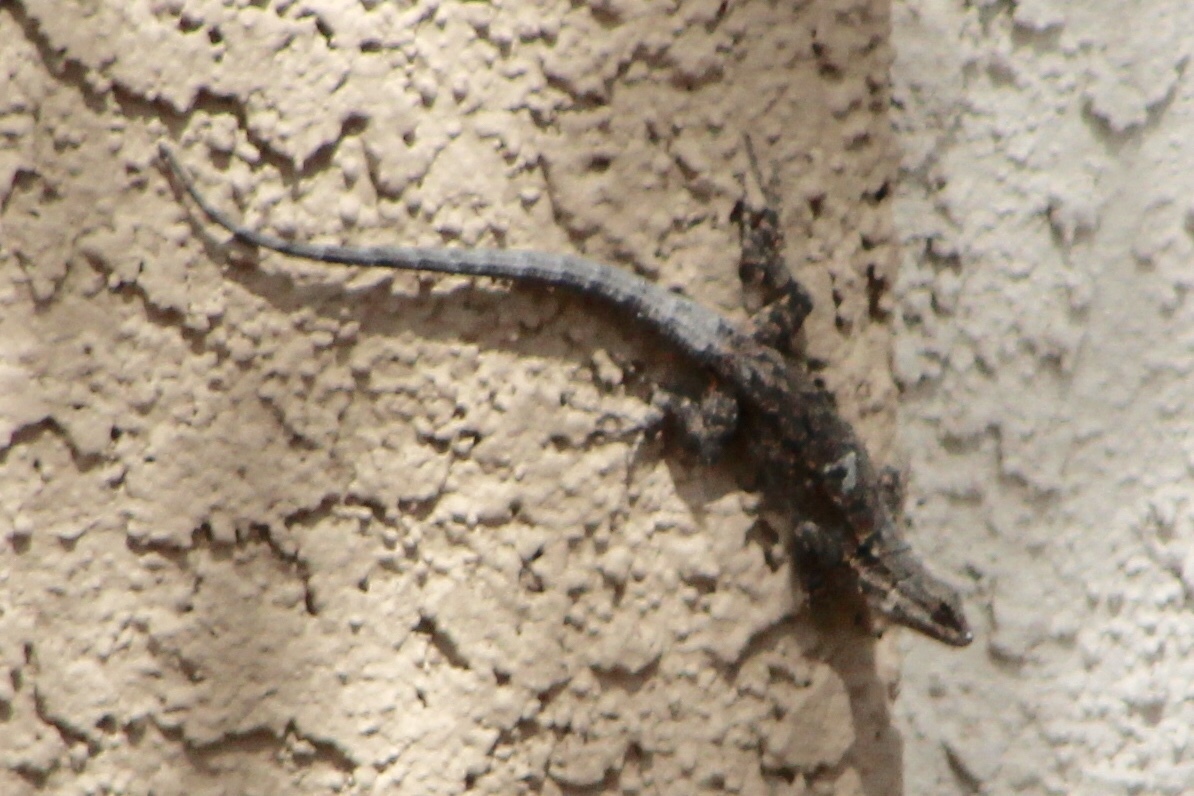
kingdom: Animalia
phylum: Chordata
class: Squamata
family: Phrynosomatidae
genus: Urosaurus
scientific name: Urosaurus ornatus
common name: Ornate tree lizard
